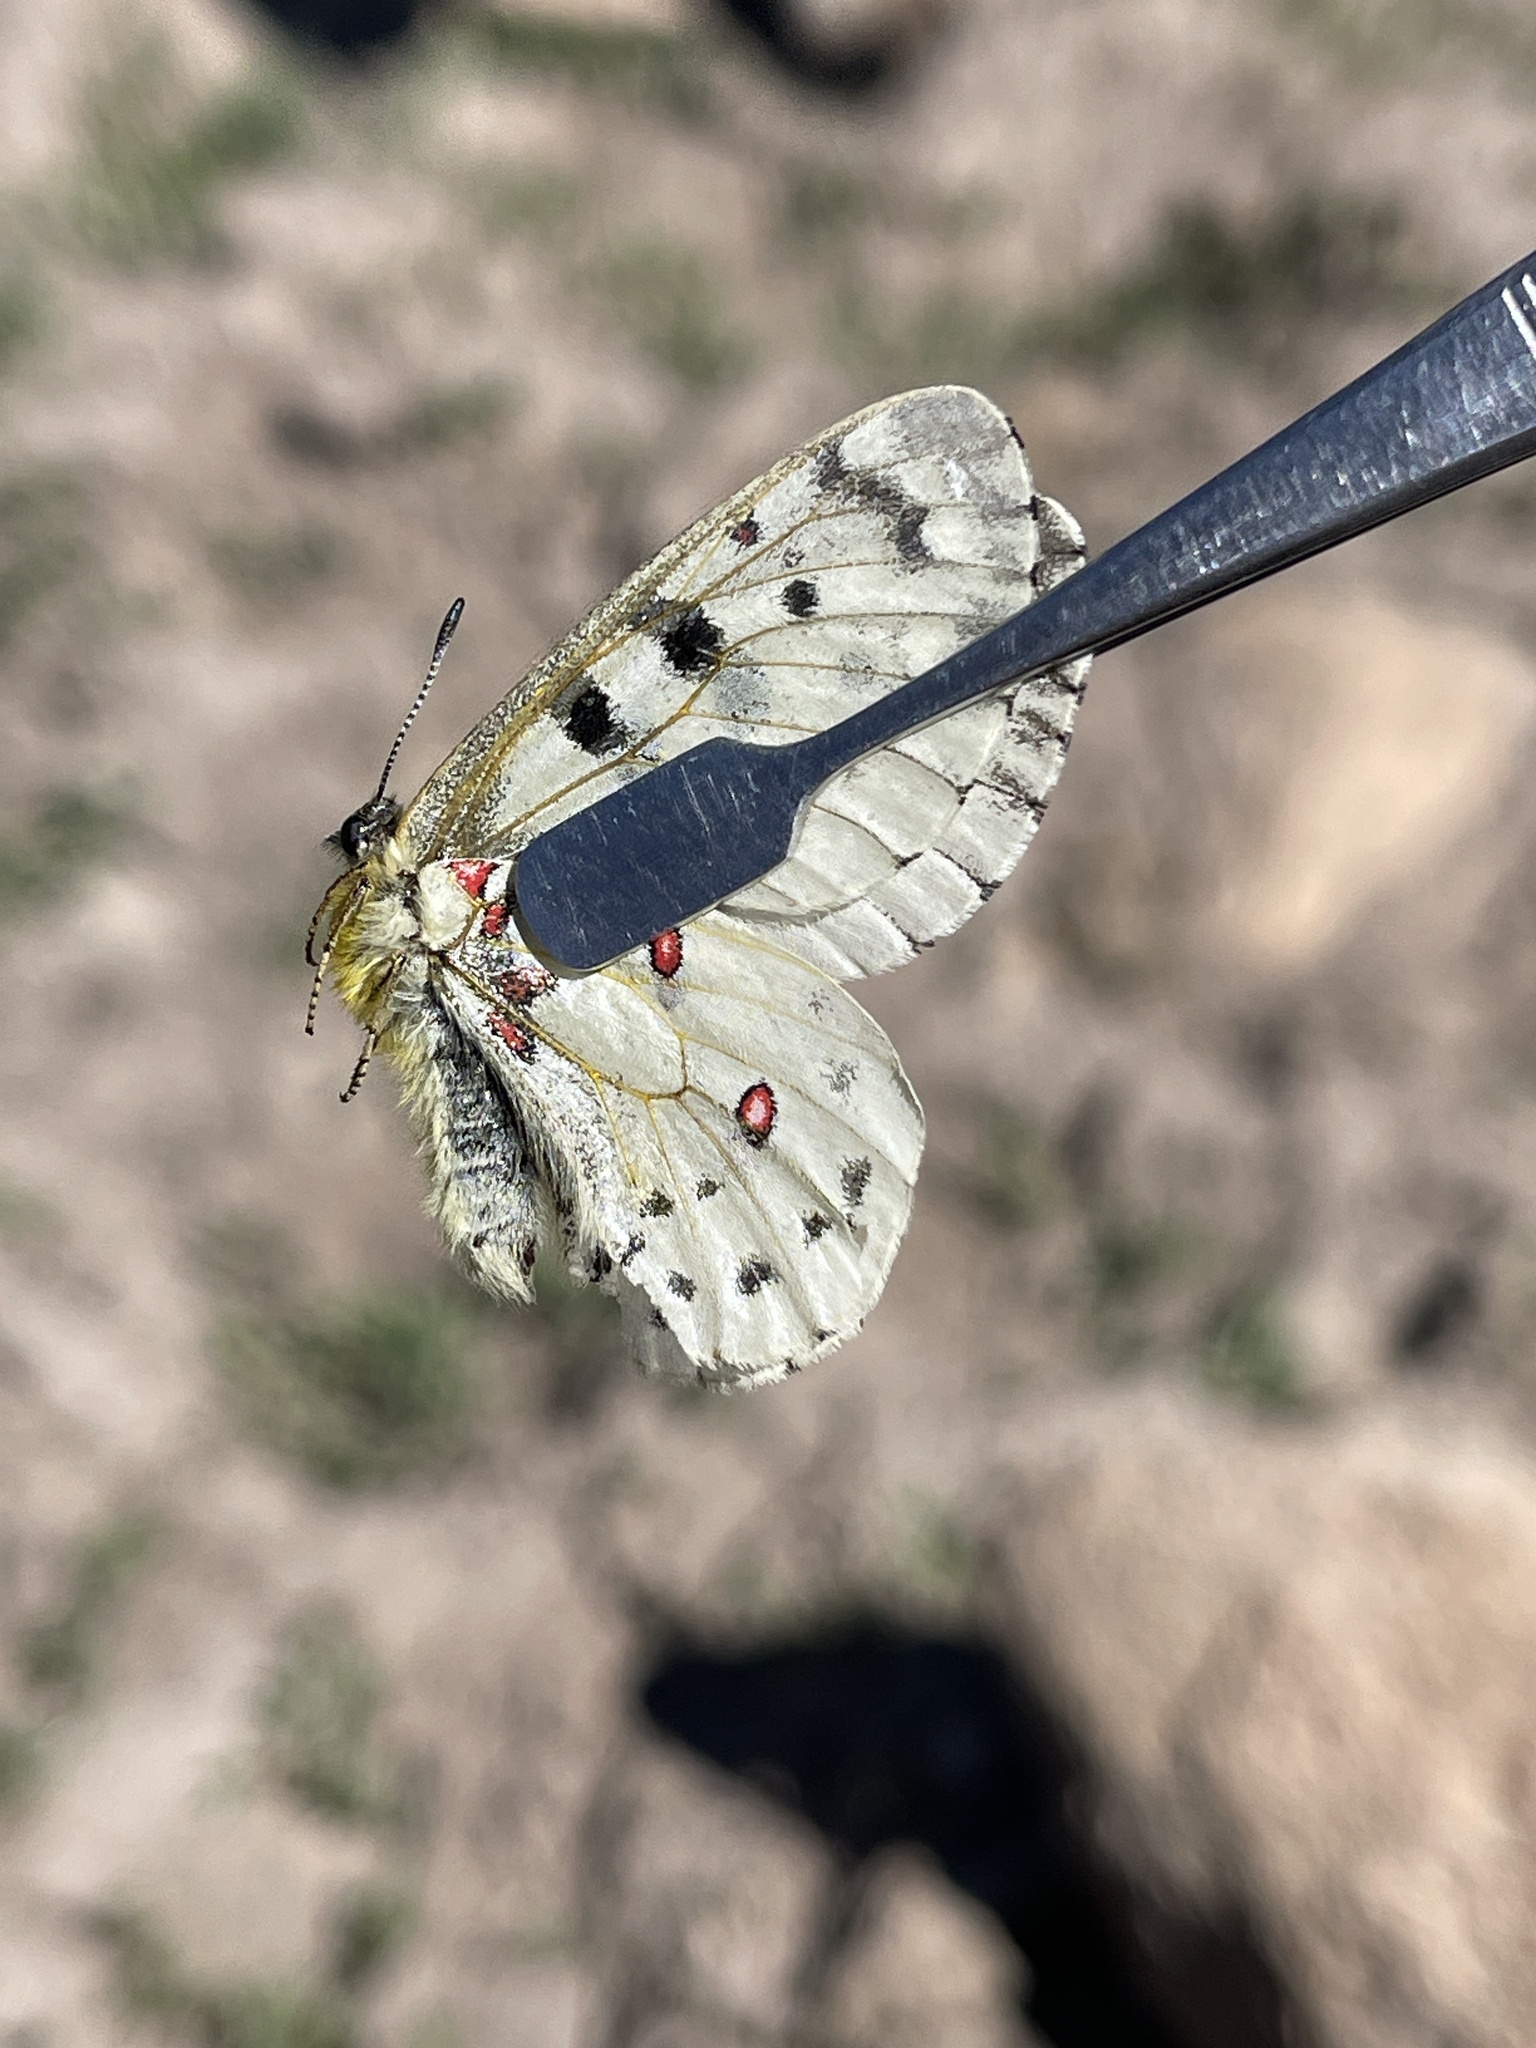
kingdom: Animalia
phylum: Arthropoda
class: Insecta
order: Lepidoptera
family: Papilionidae
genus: Parnassius
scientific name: Parnassius smintheus
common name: Mountain parnassian
